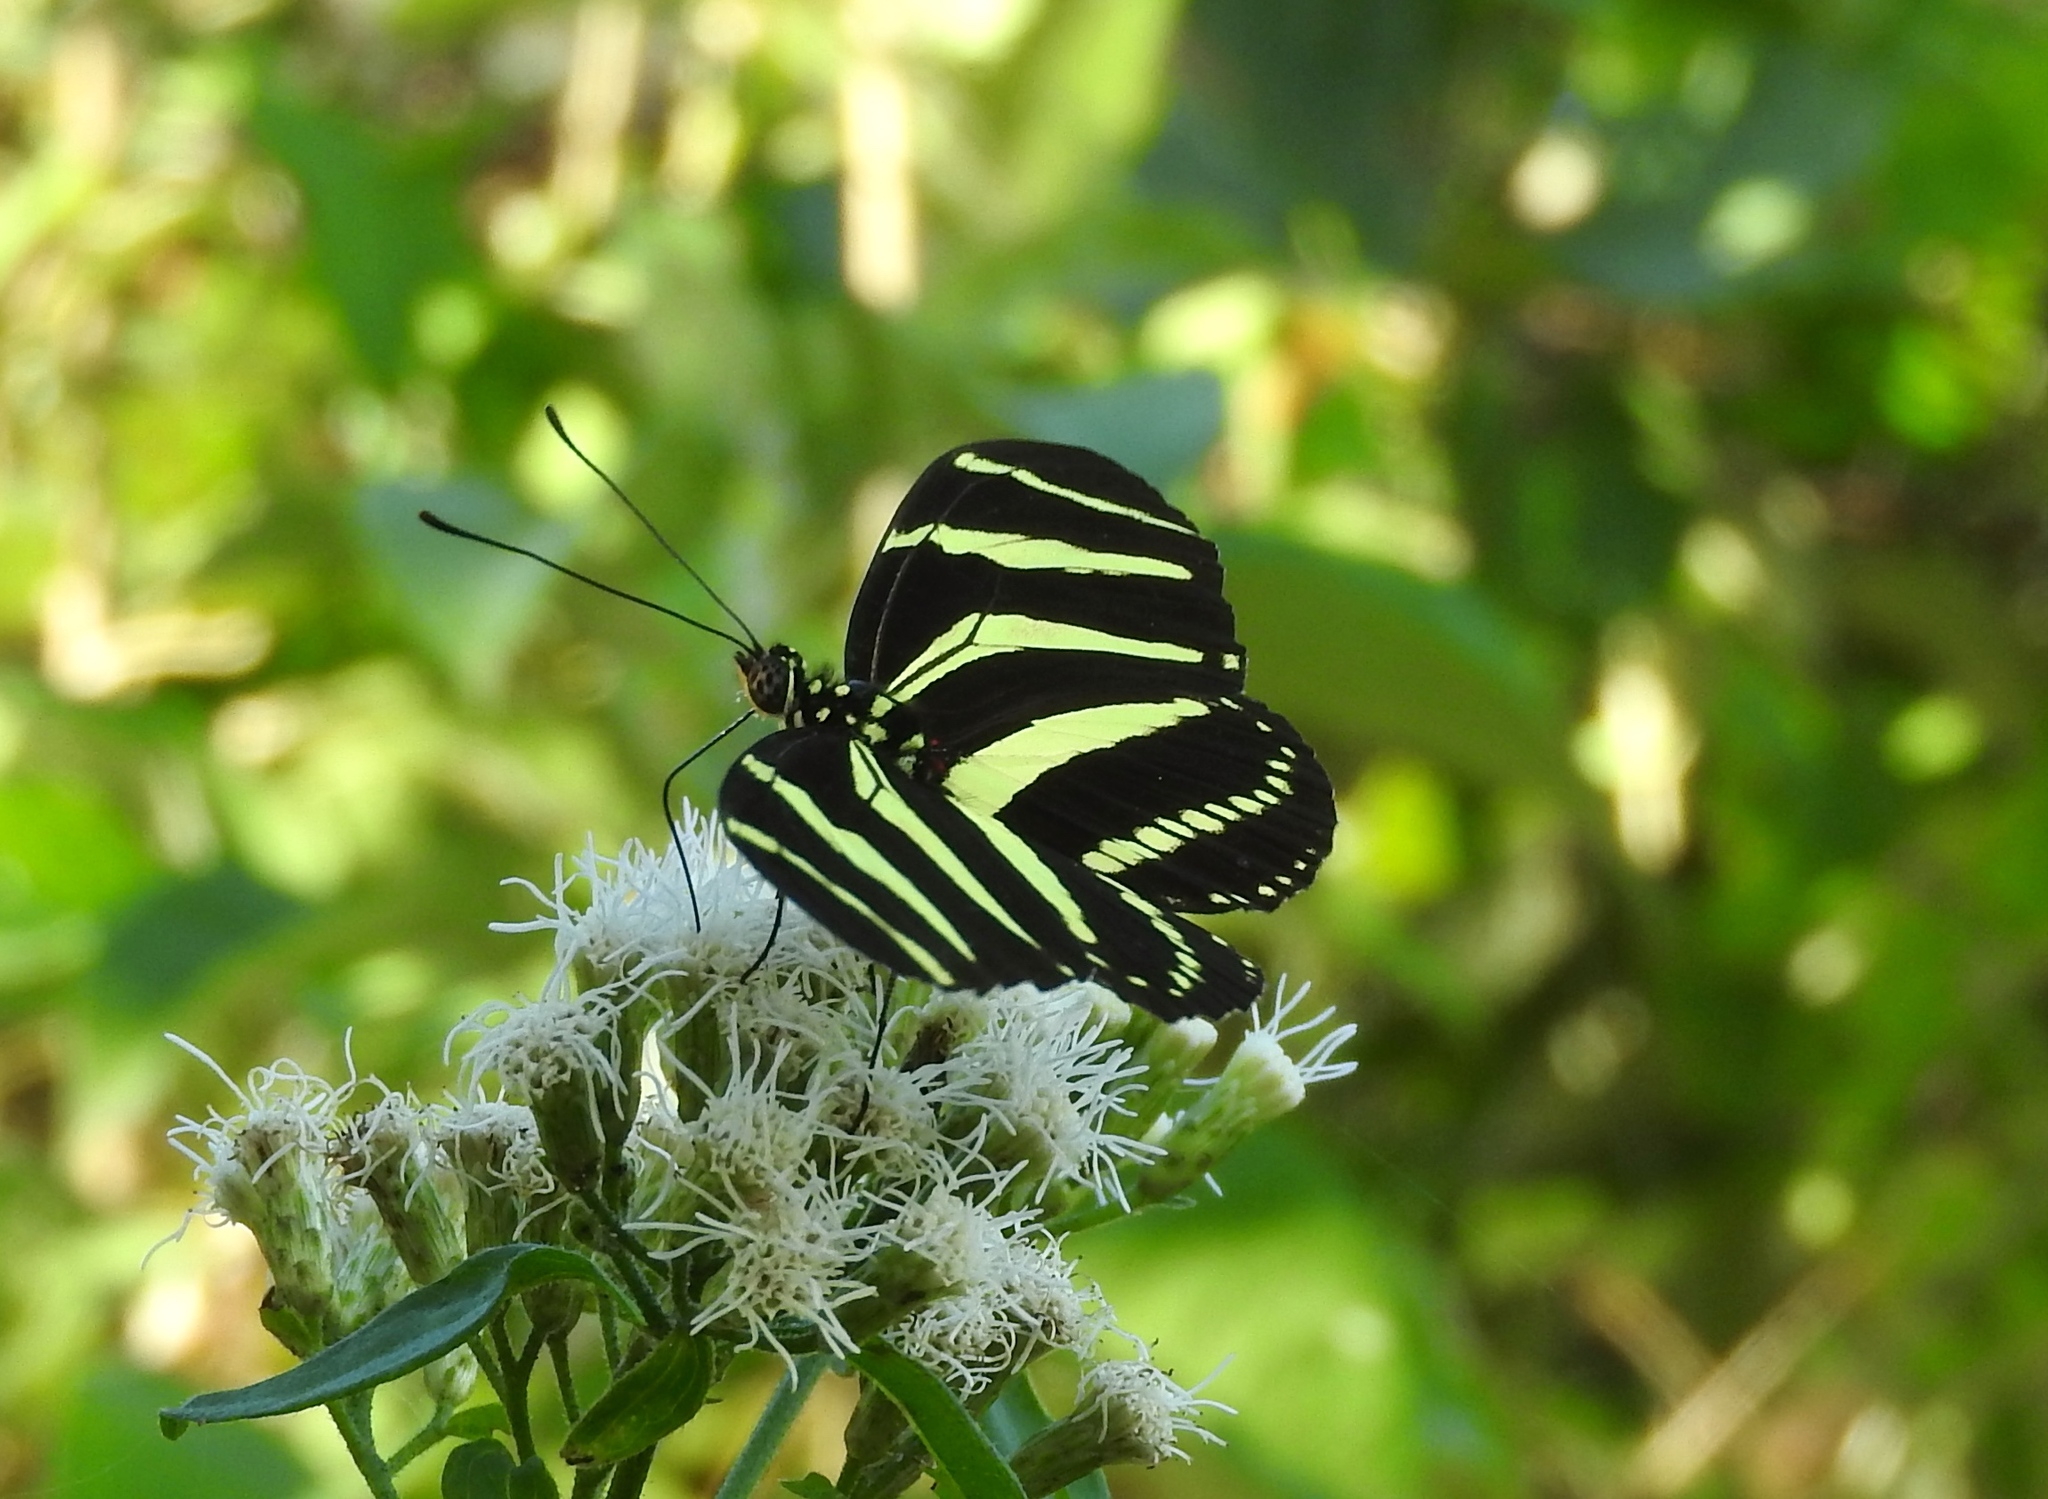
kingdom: Animalia
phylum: Arthropoda
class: Insecta
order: Lepidoptera
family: Nymphalidae
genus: Heliconius
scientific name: Heliconius charithonia
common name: Zebra long wing
